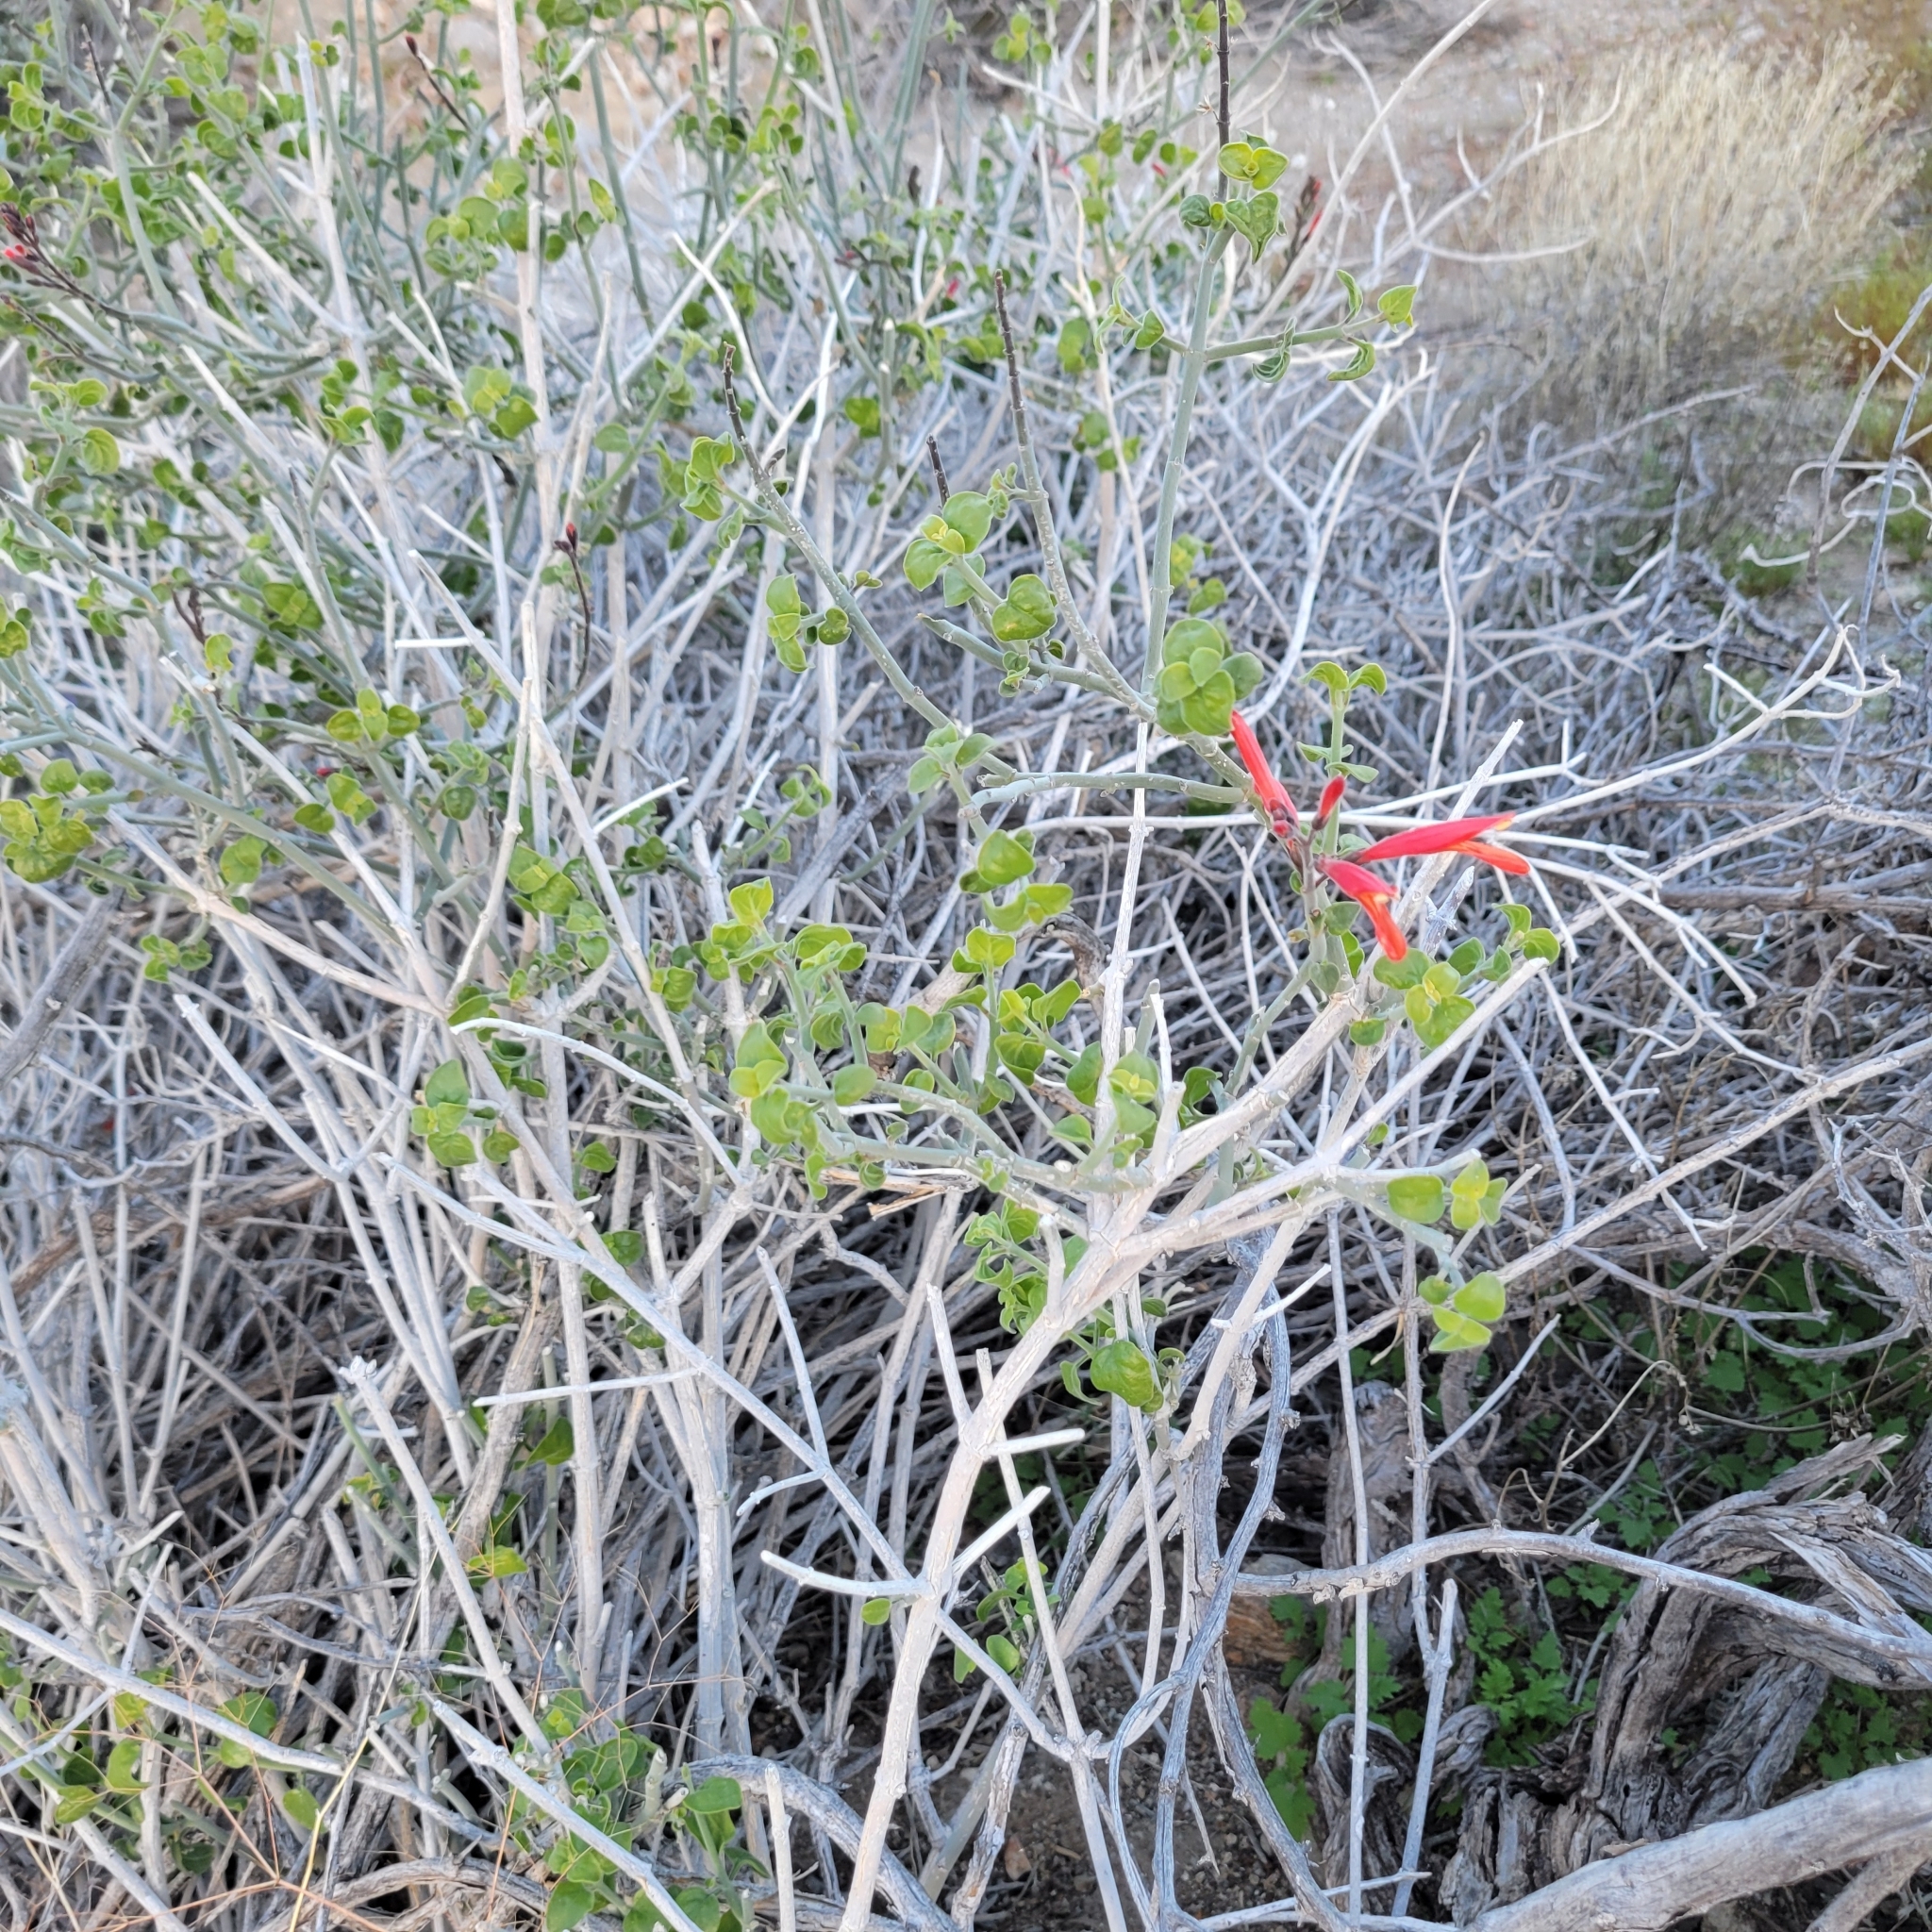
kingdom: Plantae
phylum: Tracheophyta
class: Magnoliopsida
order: Lamiales
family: Acanthaceae
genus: Justicia
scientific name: Justicia californica
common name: Chuparosa-honeysuckle
